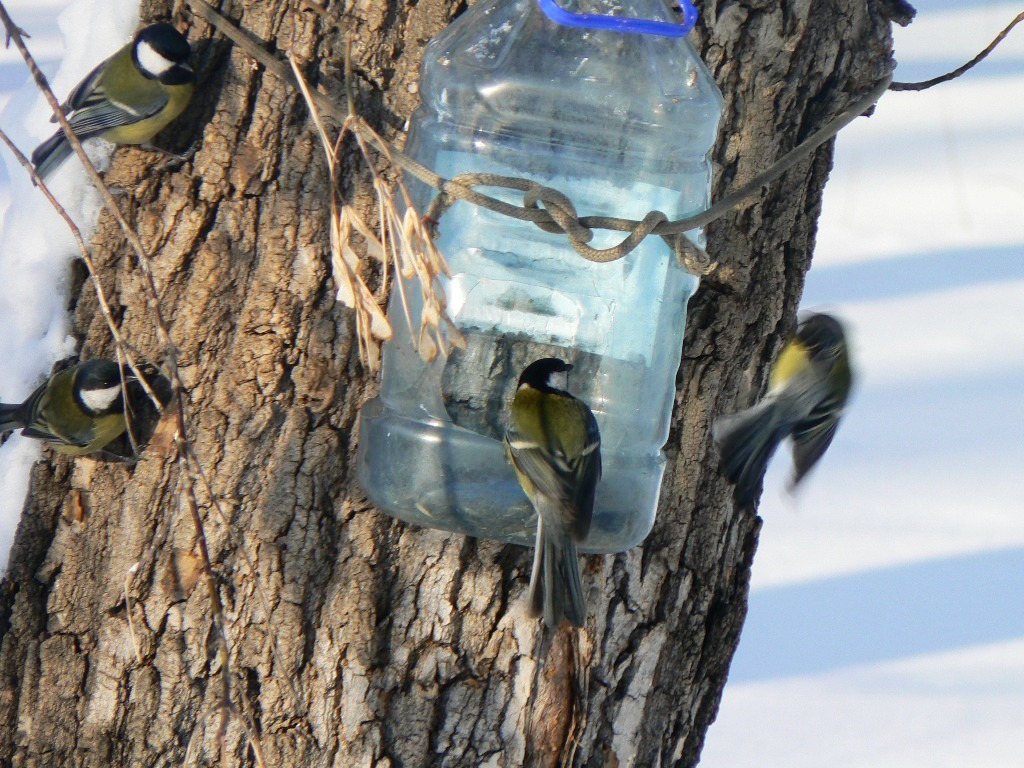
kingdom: Animalia
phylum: Chordata
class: Aves
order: Passeriformes
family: Paridae
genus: Parus
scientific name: Parus major
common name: Great tit
